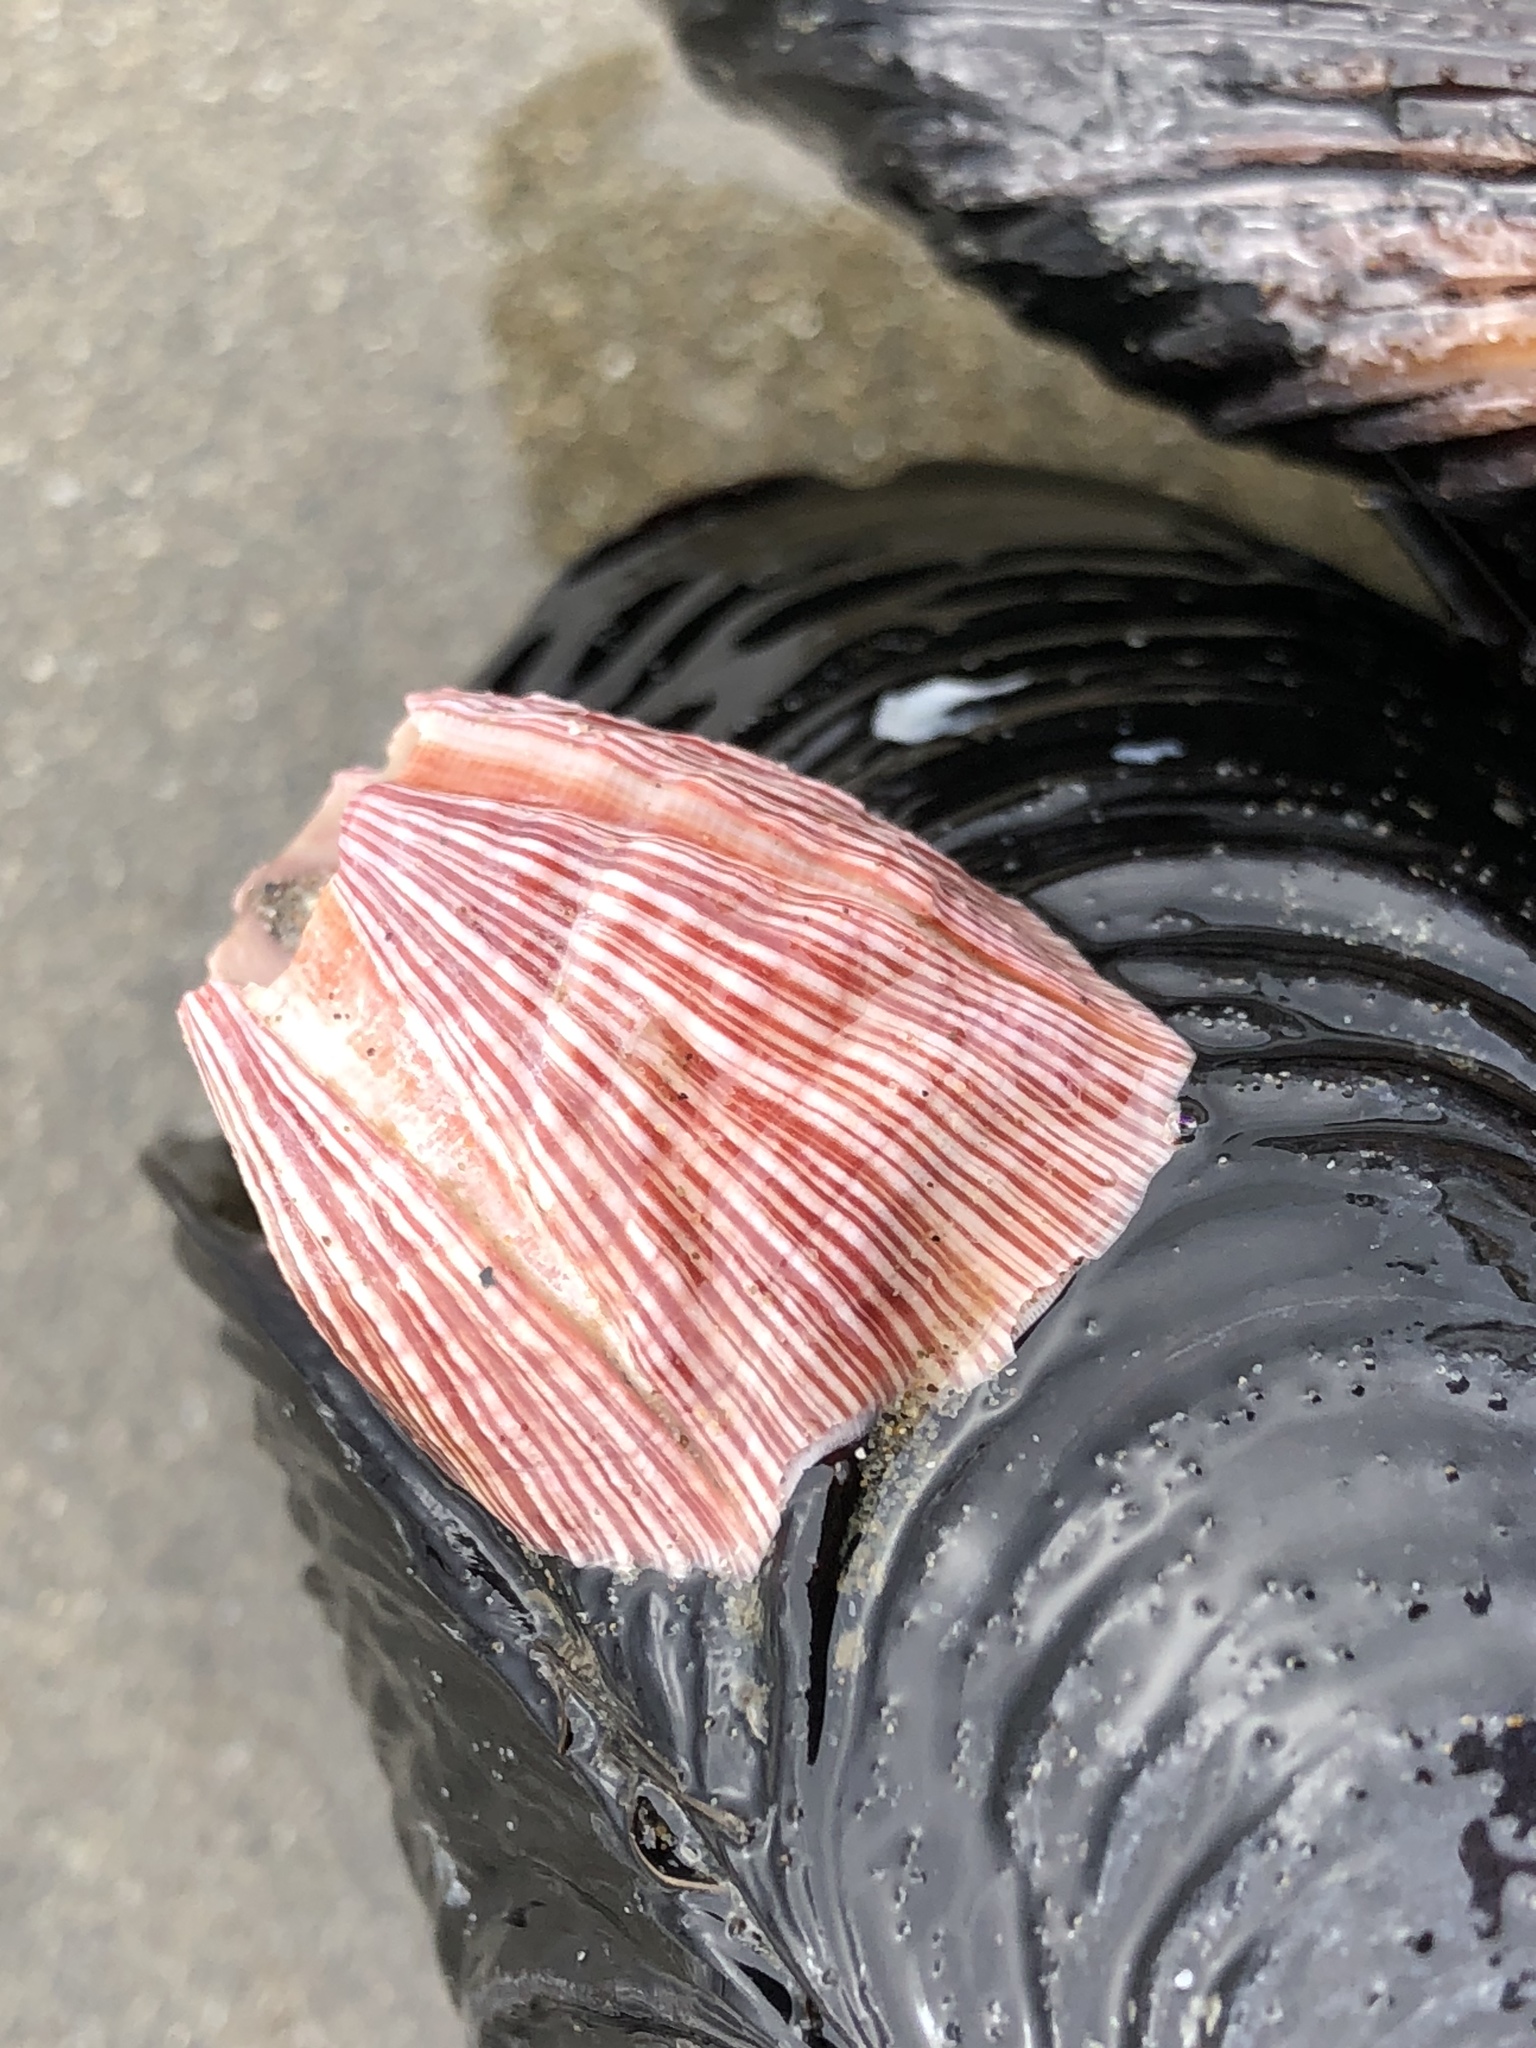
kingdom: Animalia
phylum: Arthropoda
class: Maxillopoda
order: Sessilia
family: Balanidae
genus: Megabalanus
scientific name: Megabalanus californicus
